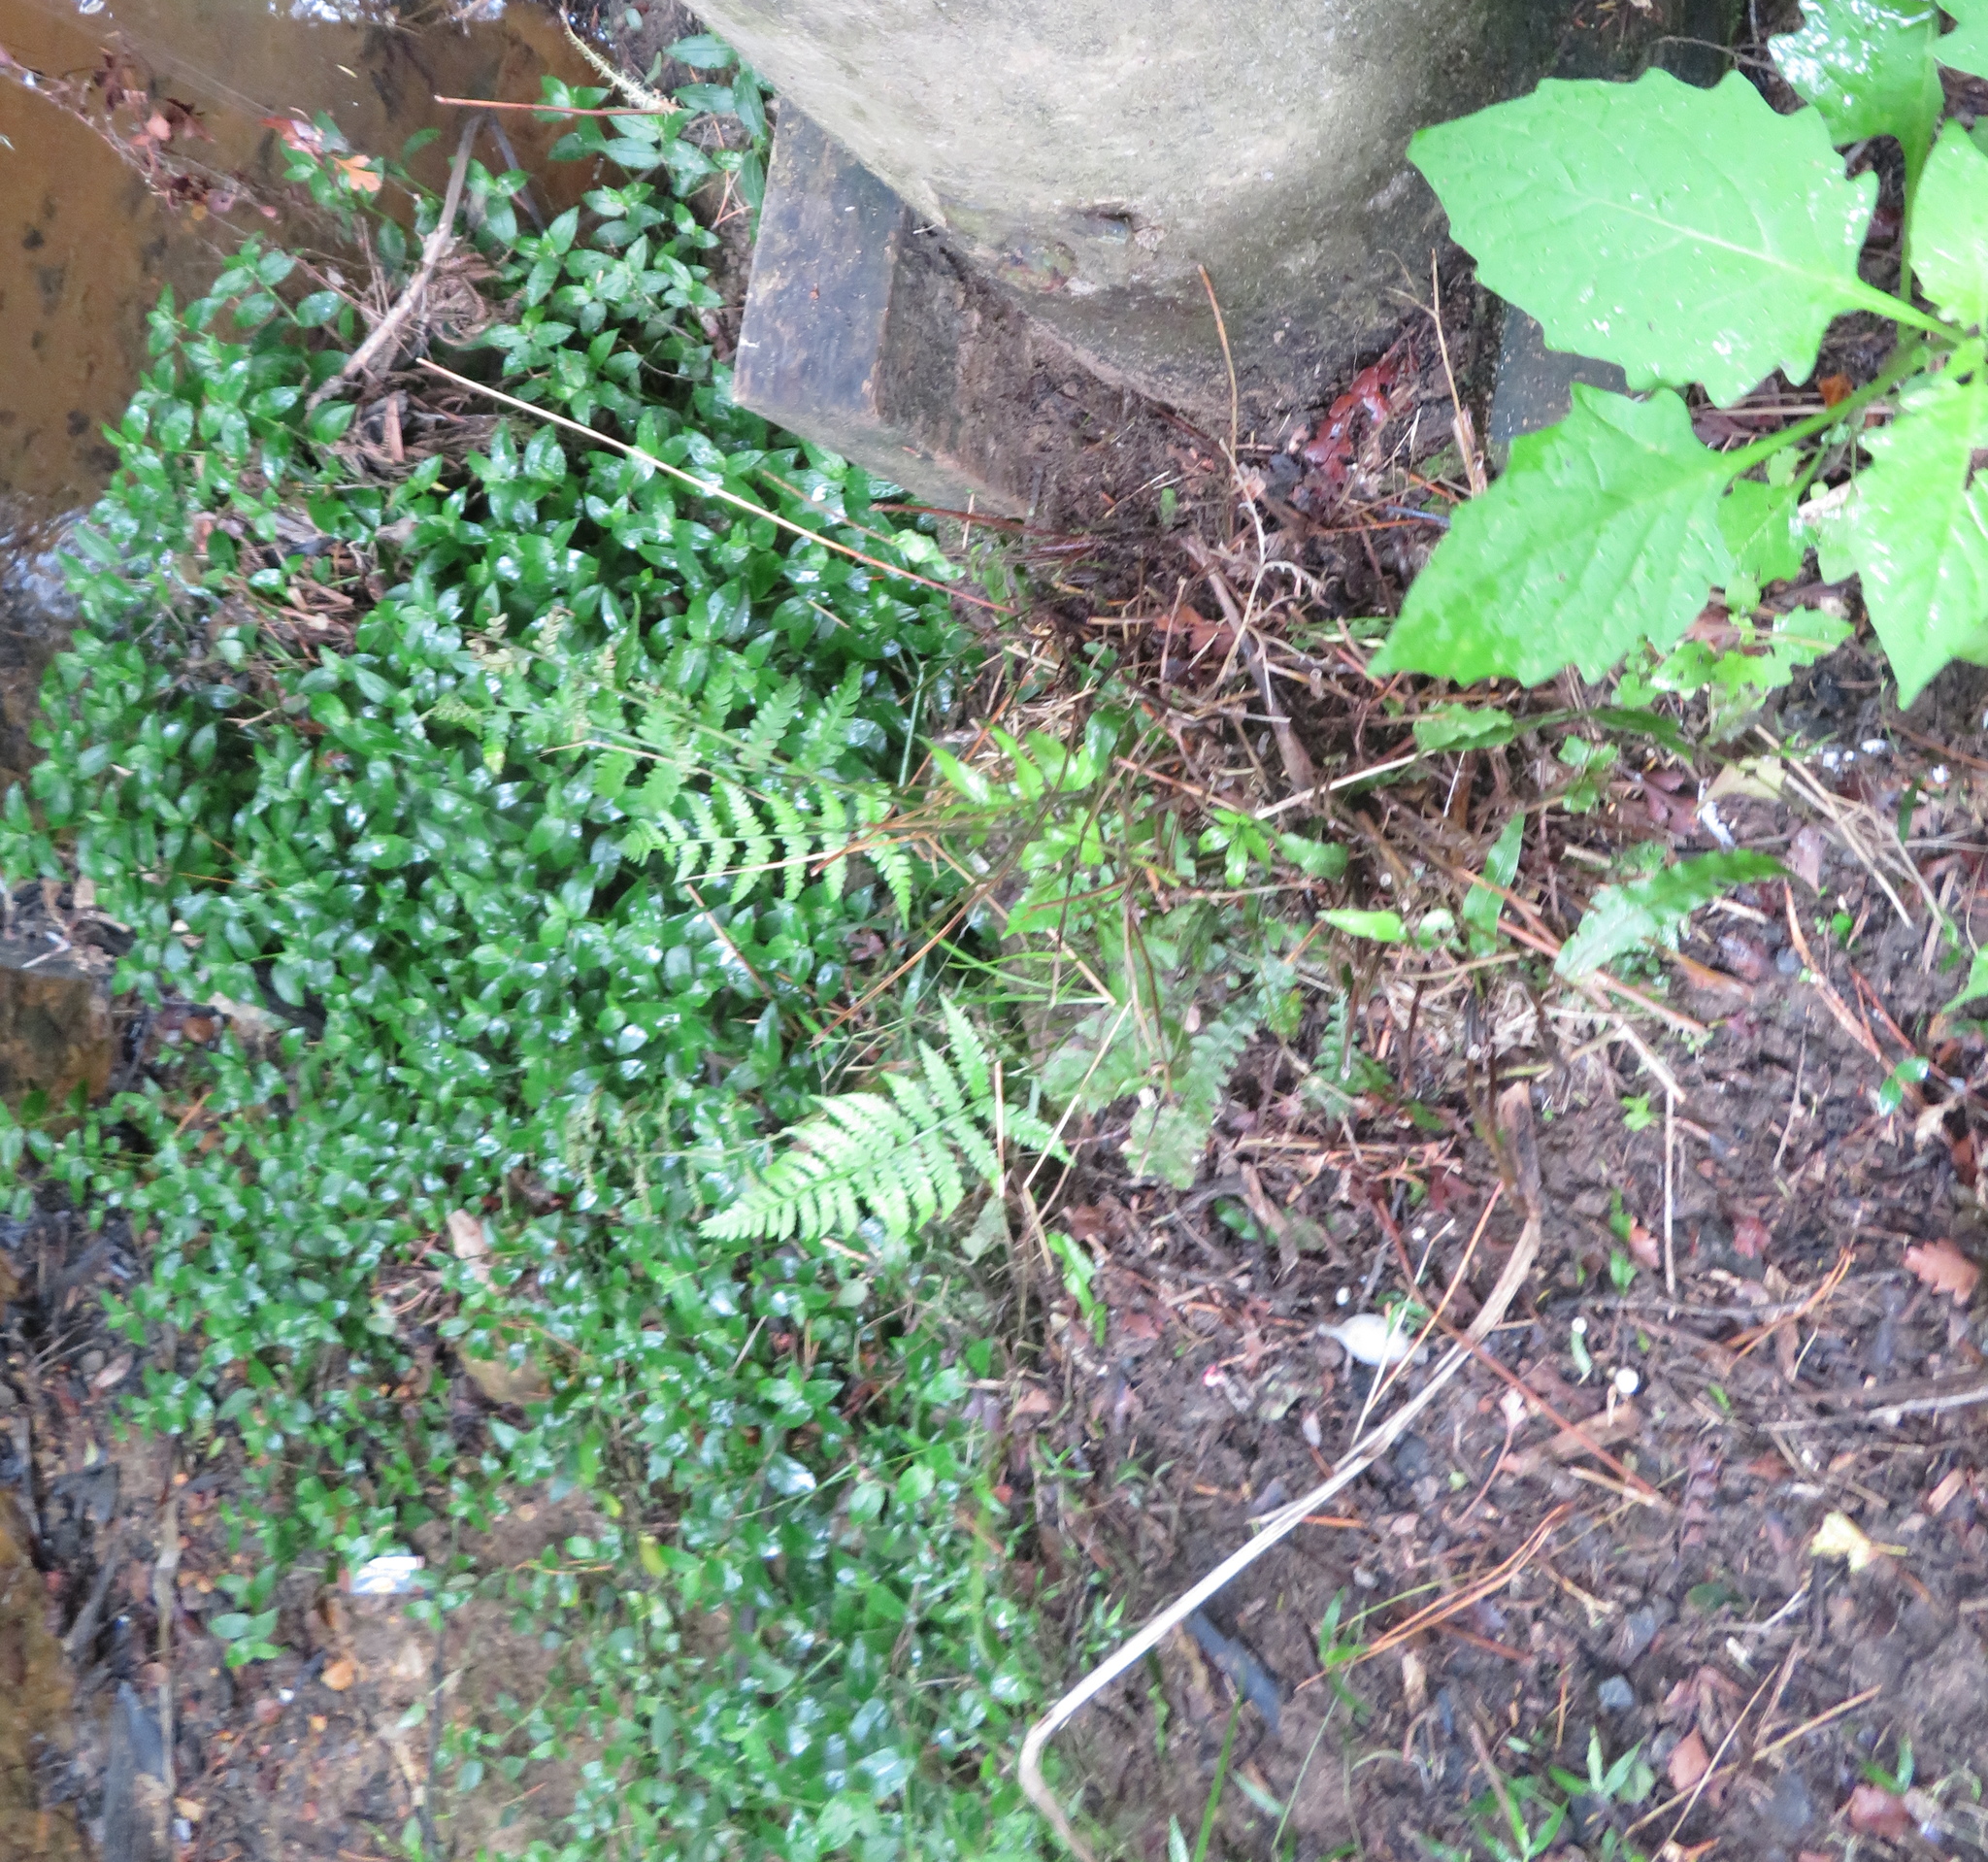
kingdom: Plantae
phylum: Tracheophyta
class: Polypodiopsida
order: Polypodiales
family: Pteridaceae
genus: Pteris
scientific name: Pteris cretica
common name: Ribbon fern
